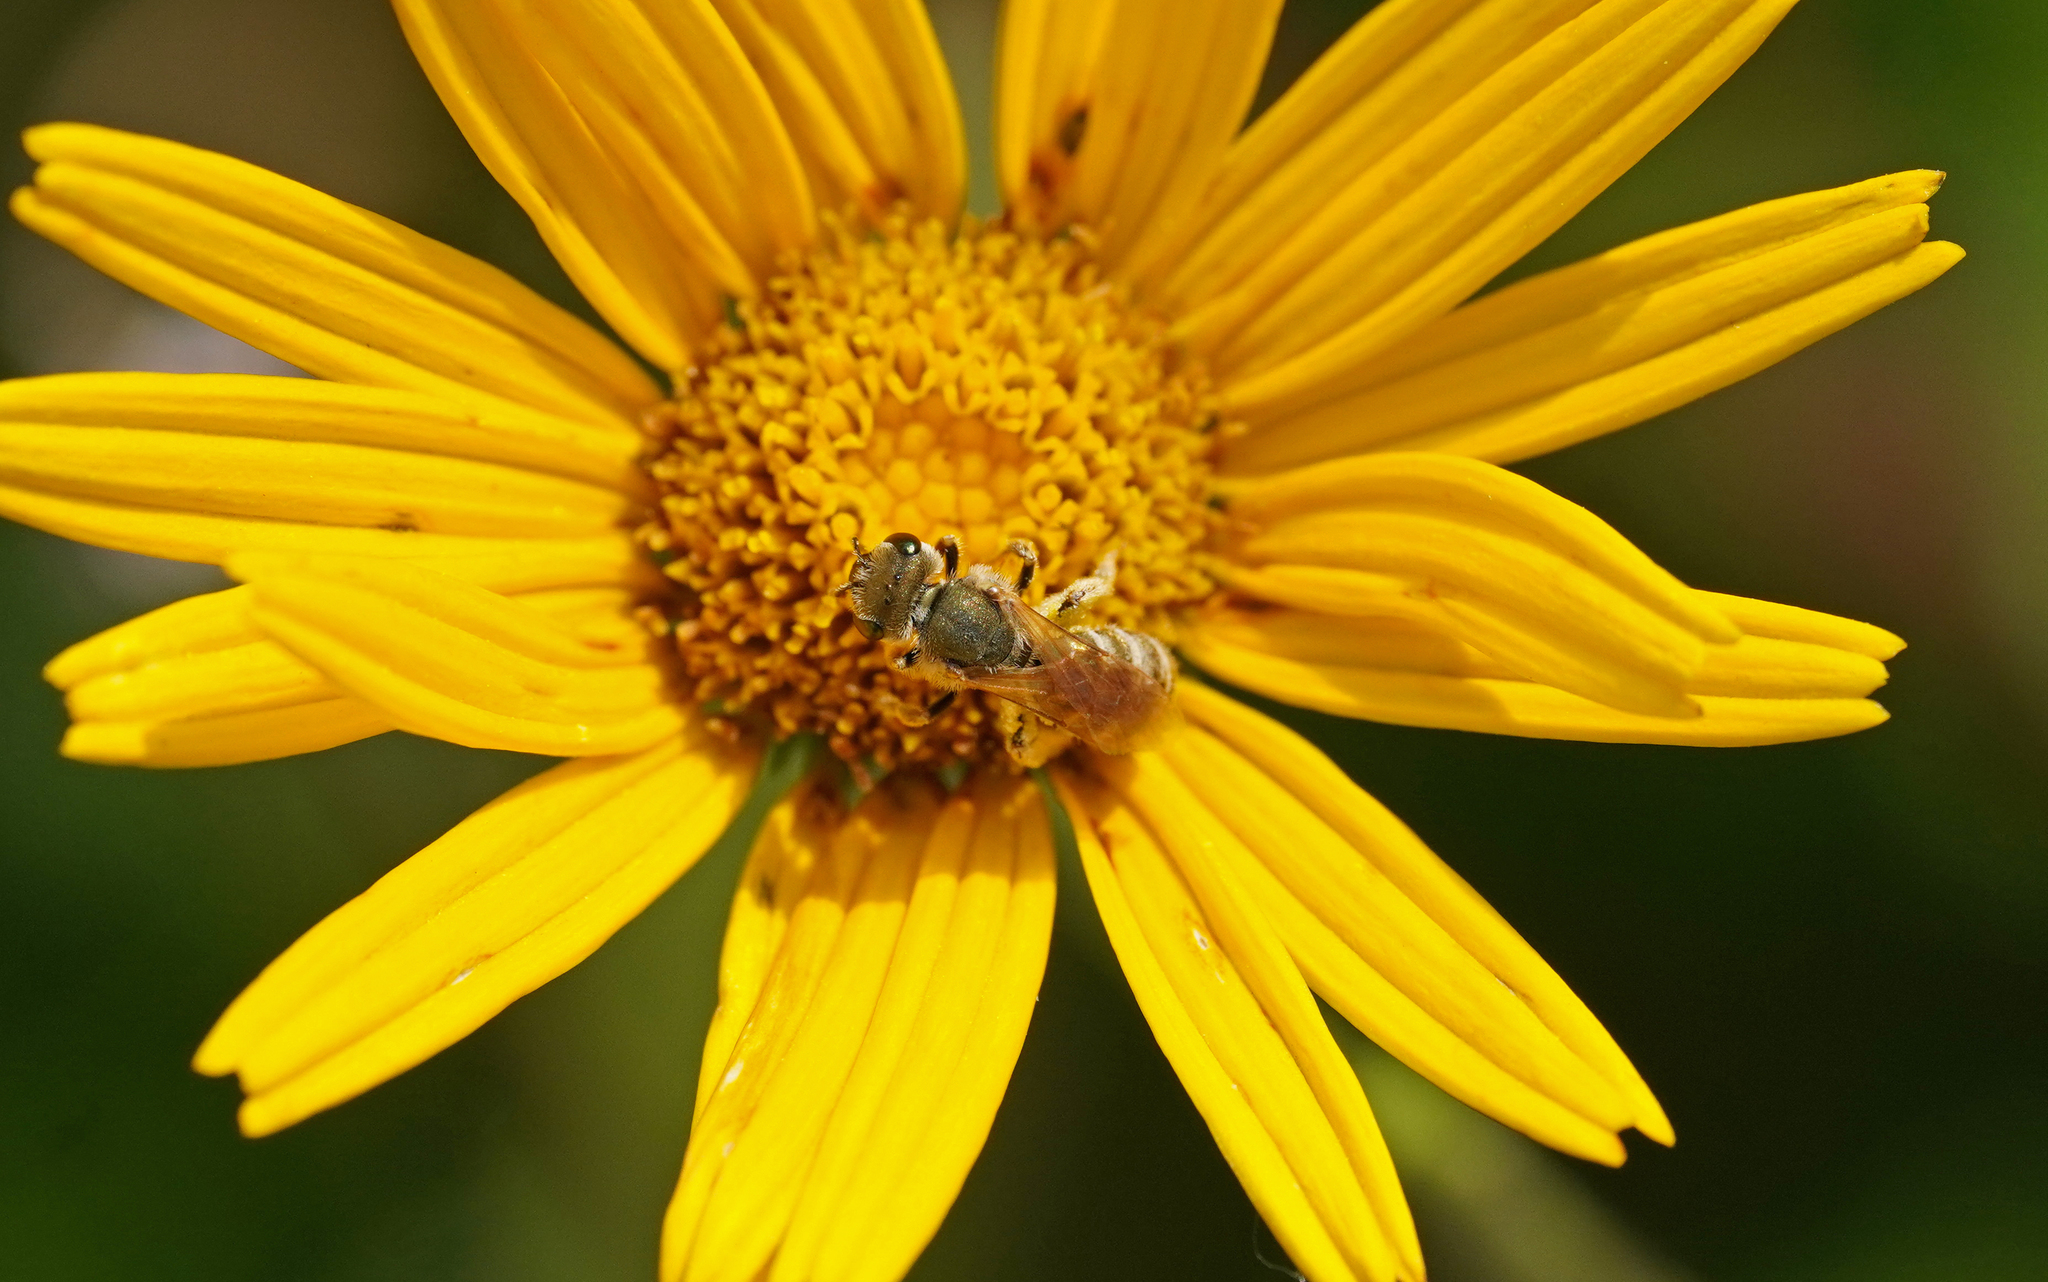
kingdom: Animalia
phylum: Arthropoda
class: Insecta
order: Hymenoptera
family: Halictidae
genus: Halictus
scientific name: Halictus subauratus
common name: Golden furrow bee
